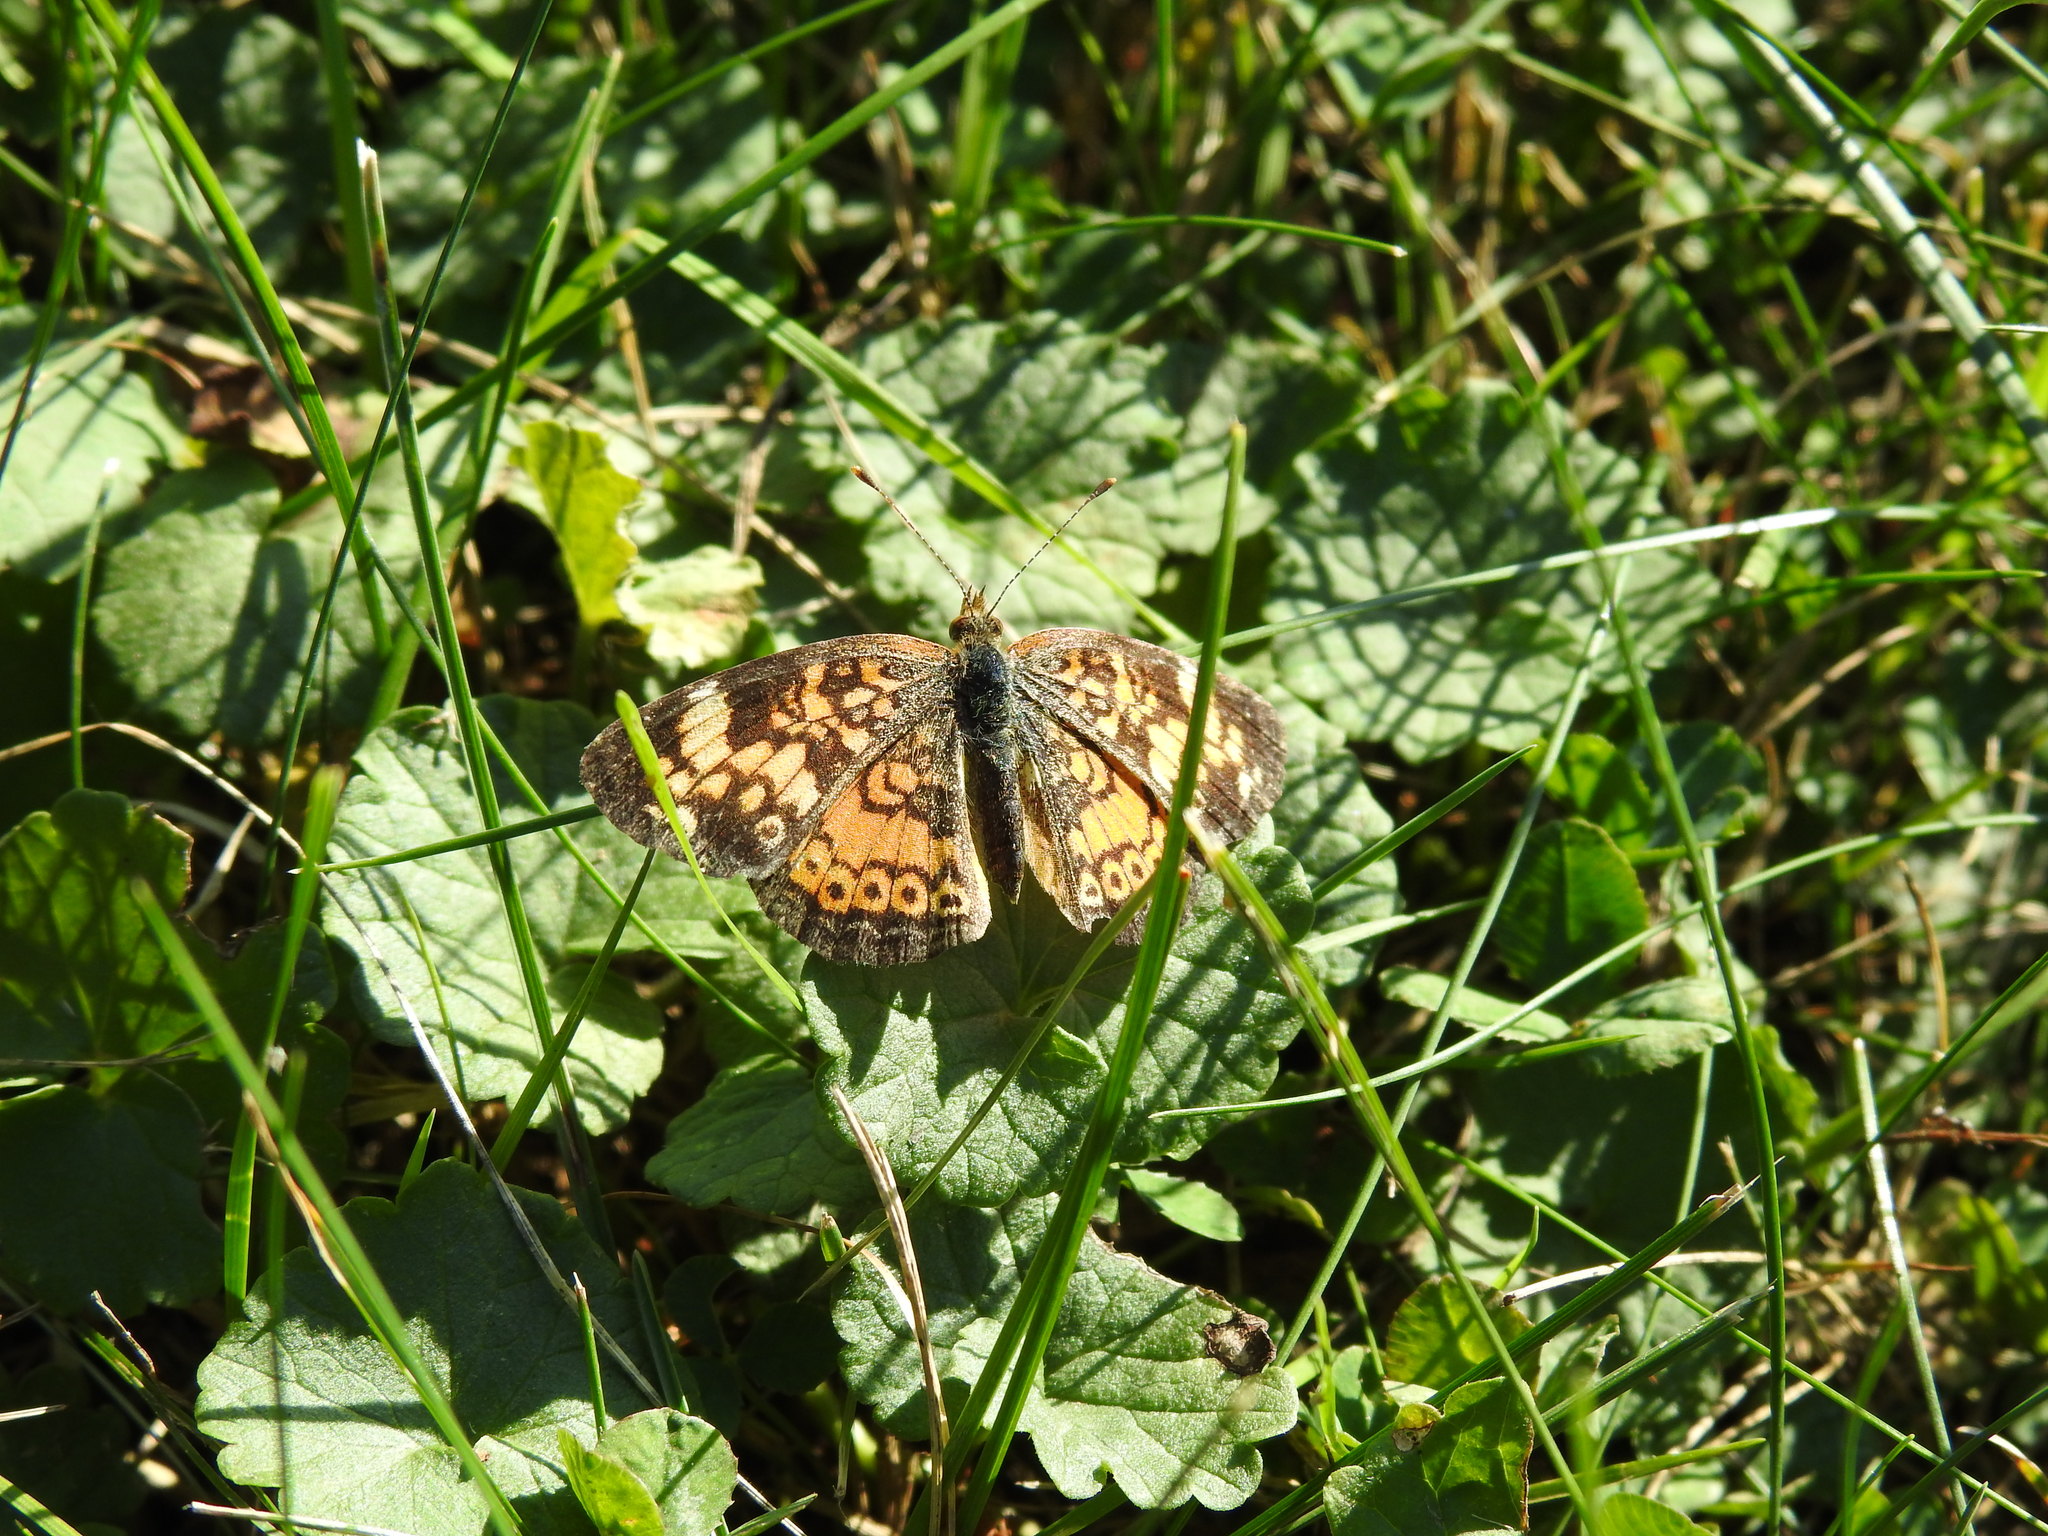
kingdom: Animalia
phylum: Arthropoda
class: Insecta
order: Lepidoptera
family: Nymphalidae
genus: Phyciodes
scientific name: Phyciodes tharos
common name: Pearl crescent
